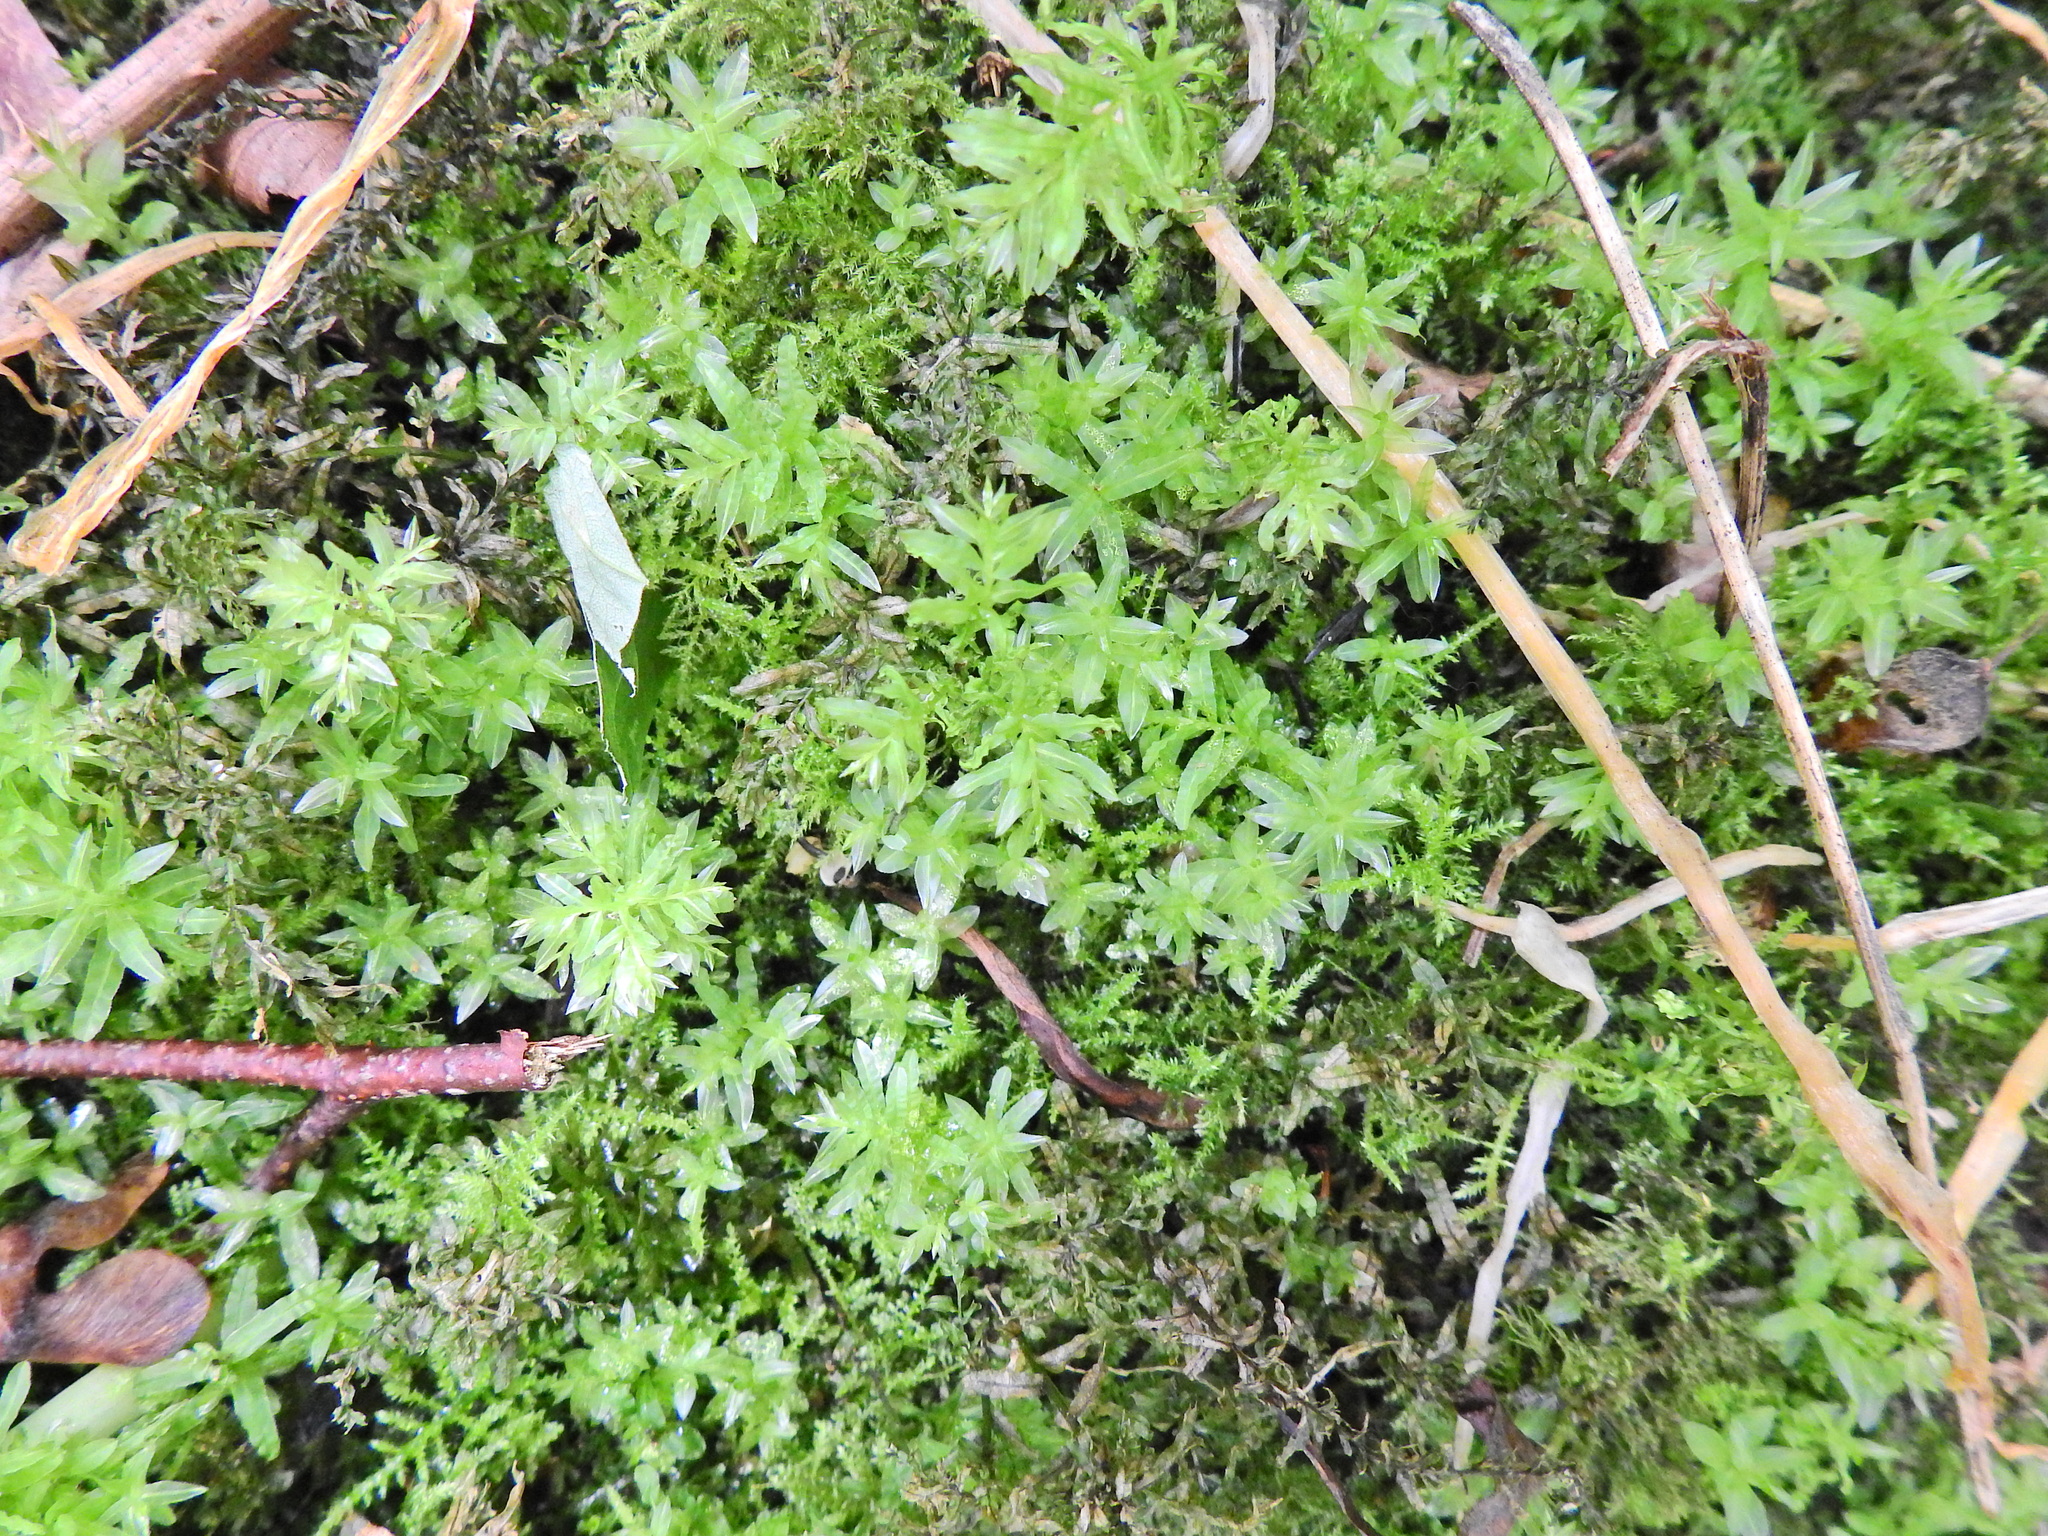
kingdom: Plantae
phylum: Bryophyta
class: Bryopsida
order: Bryales
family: Mniaceae
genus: Plagiomnium
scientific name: Plagiomnium undulatum
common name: Hart's-tongue thyme-moss
